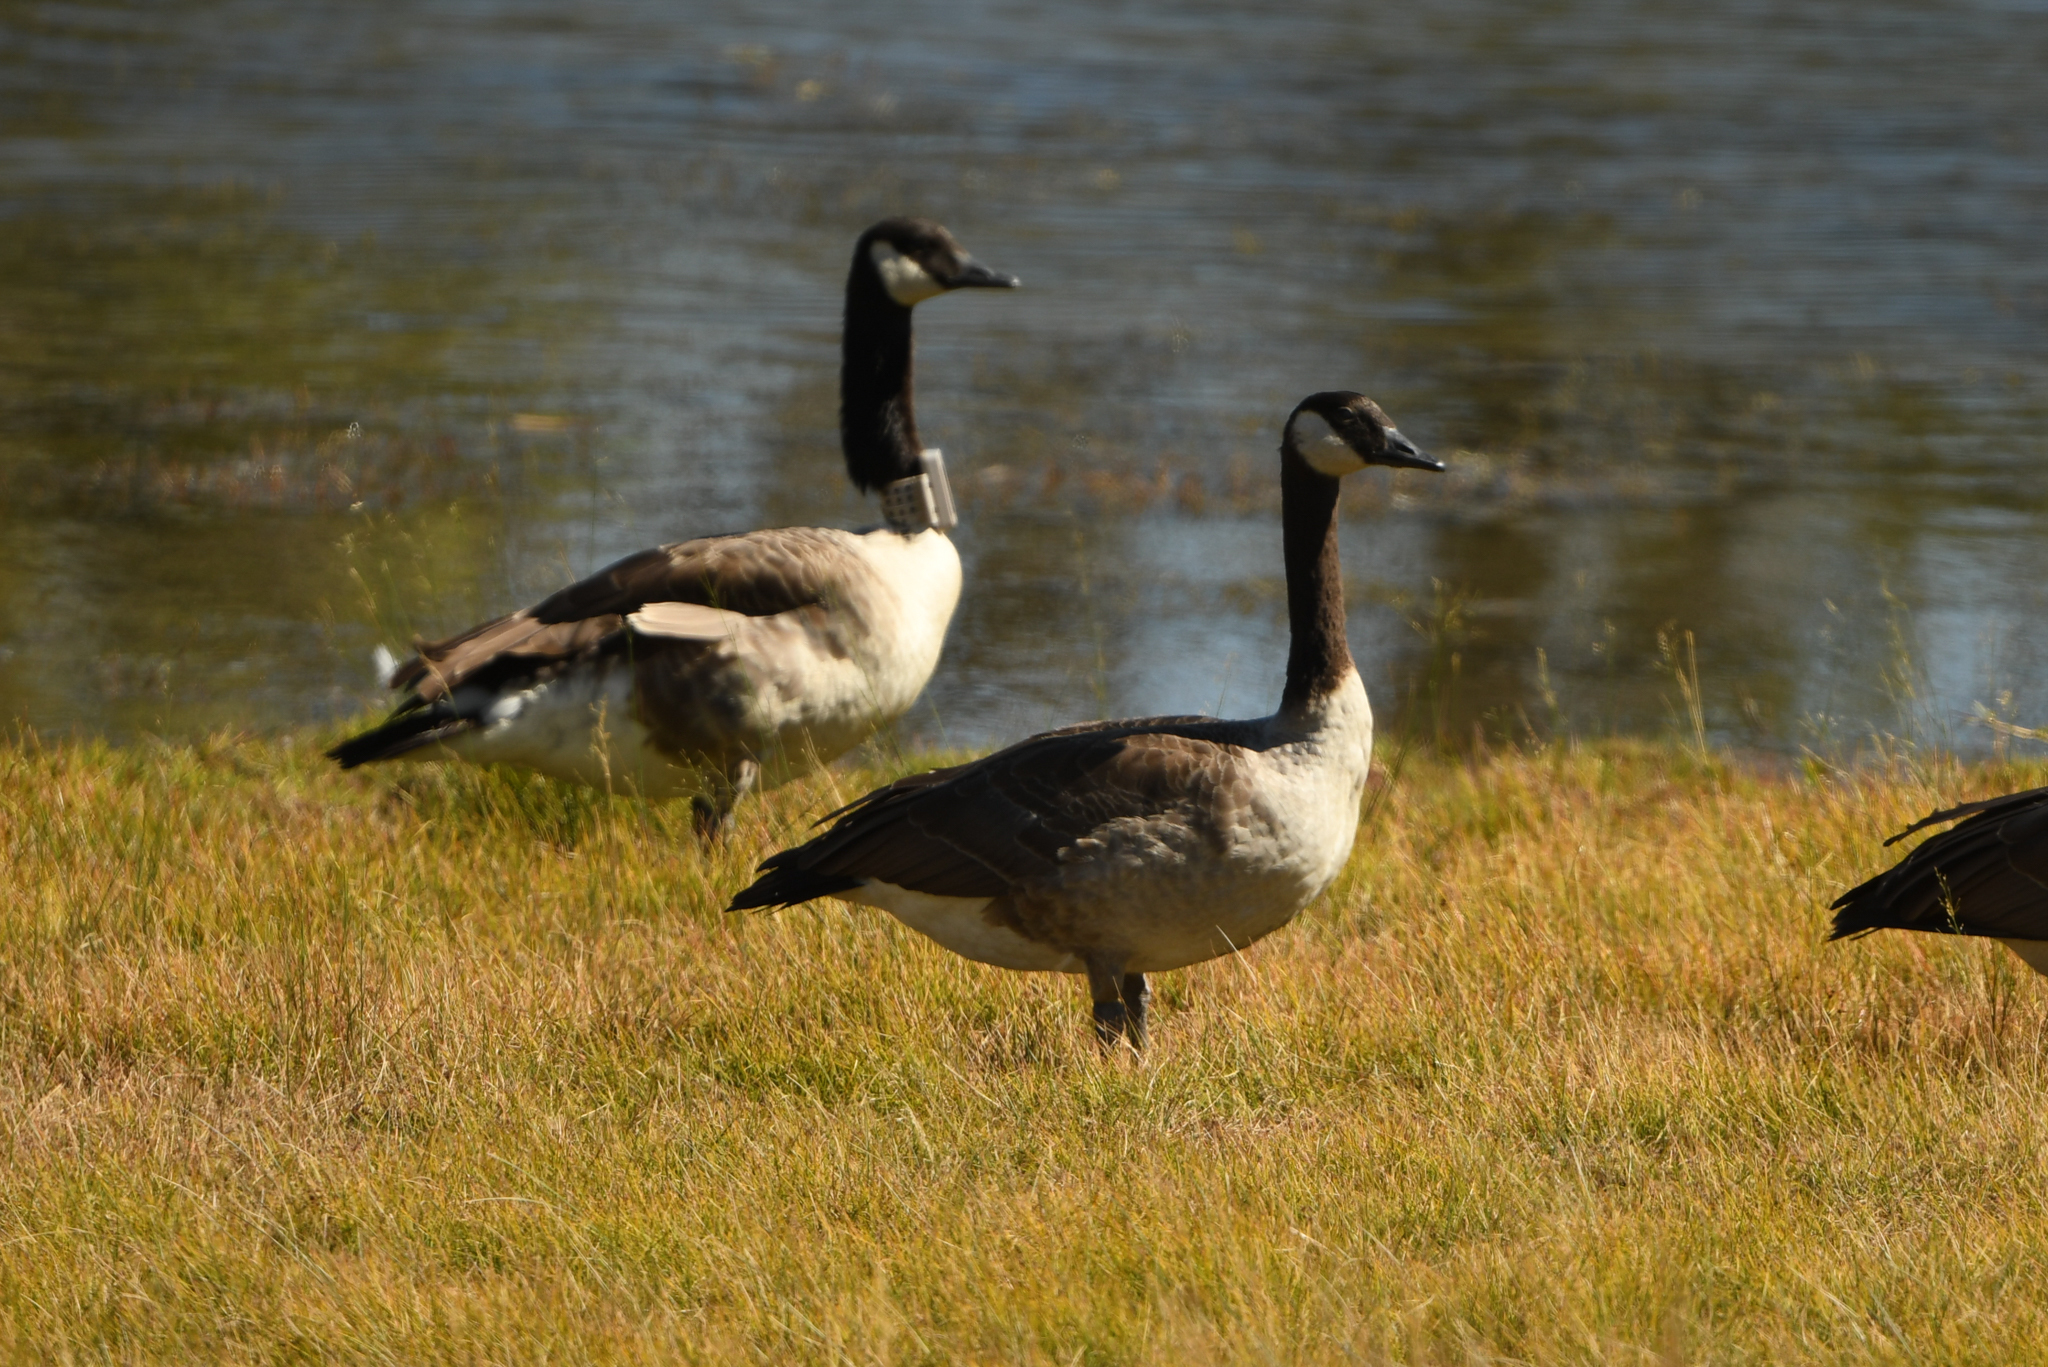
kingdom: Animalia
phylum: Chordata
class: Aves
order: Anseriformes
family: Anatidae
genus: Branta
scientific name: Branta canadensis
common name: Canada goose
